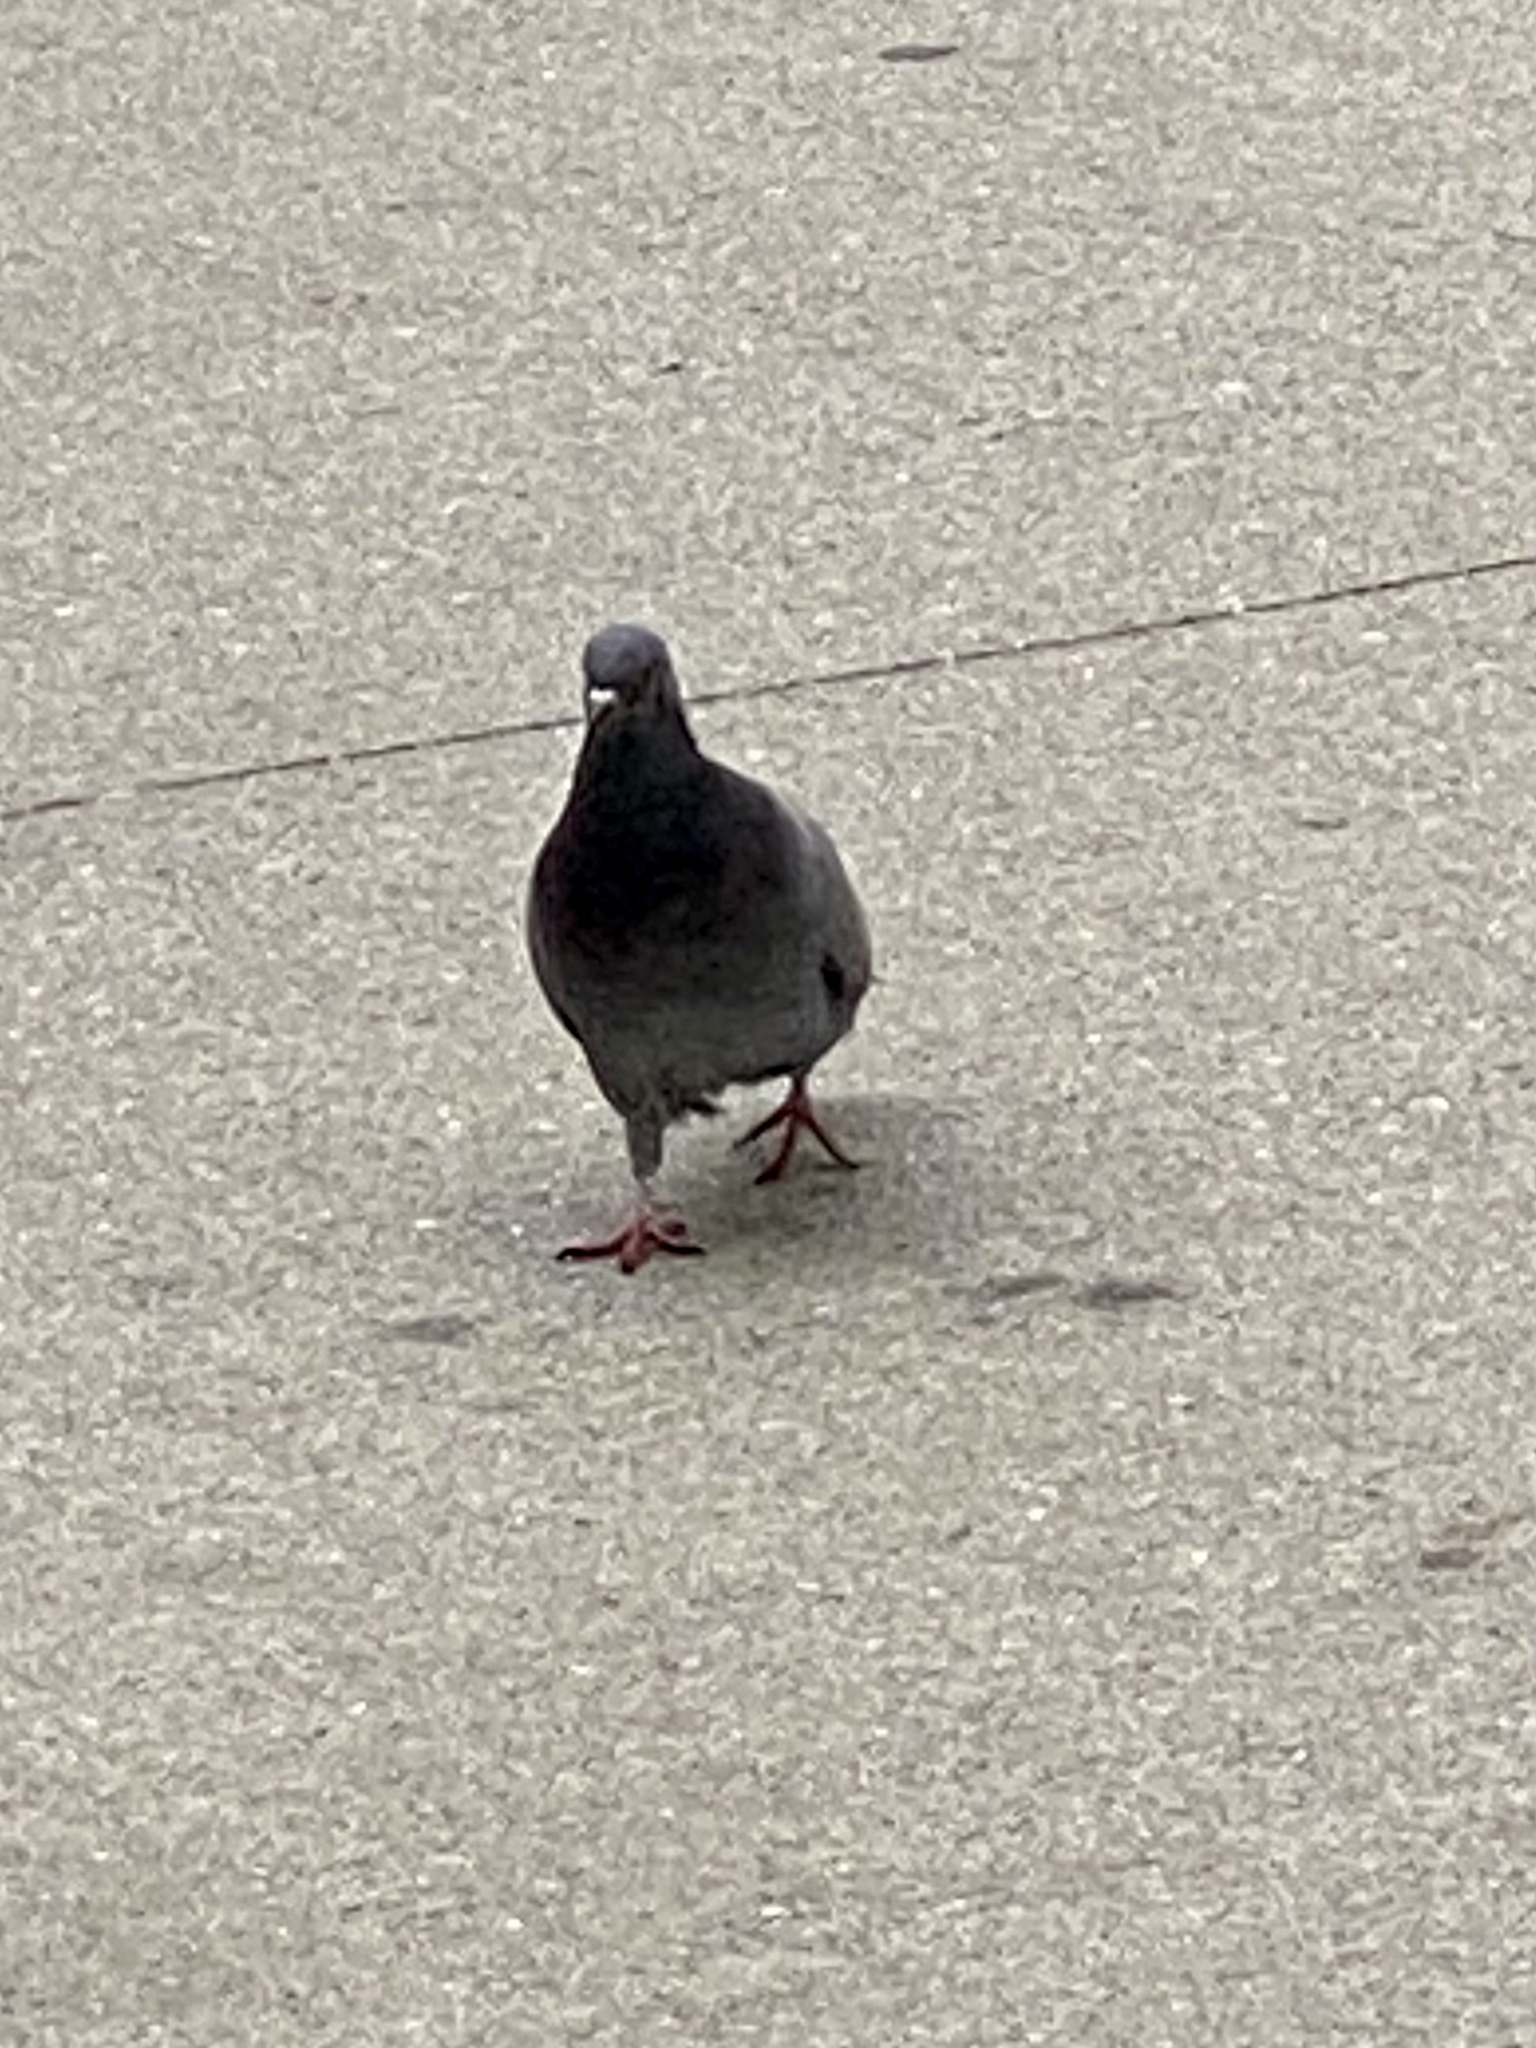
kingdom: Animalia
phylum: Chordata
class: Aves
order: Columbiformes
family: Columbidae
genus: Columba
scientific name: Columba livia
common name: Rock pigeon
